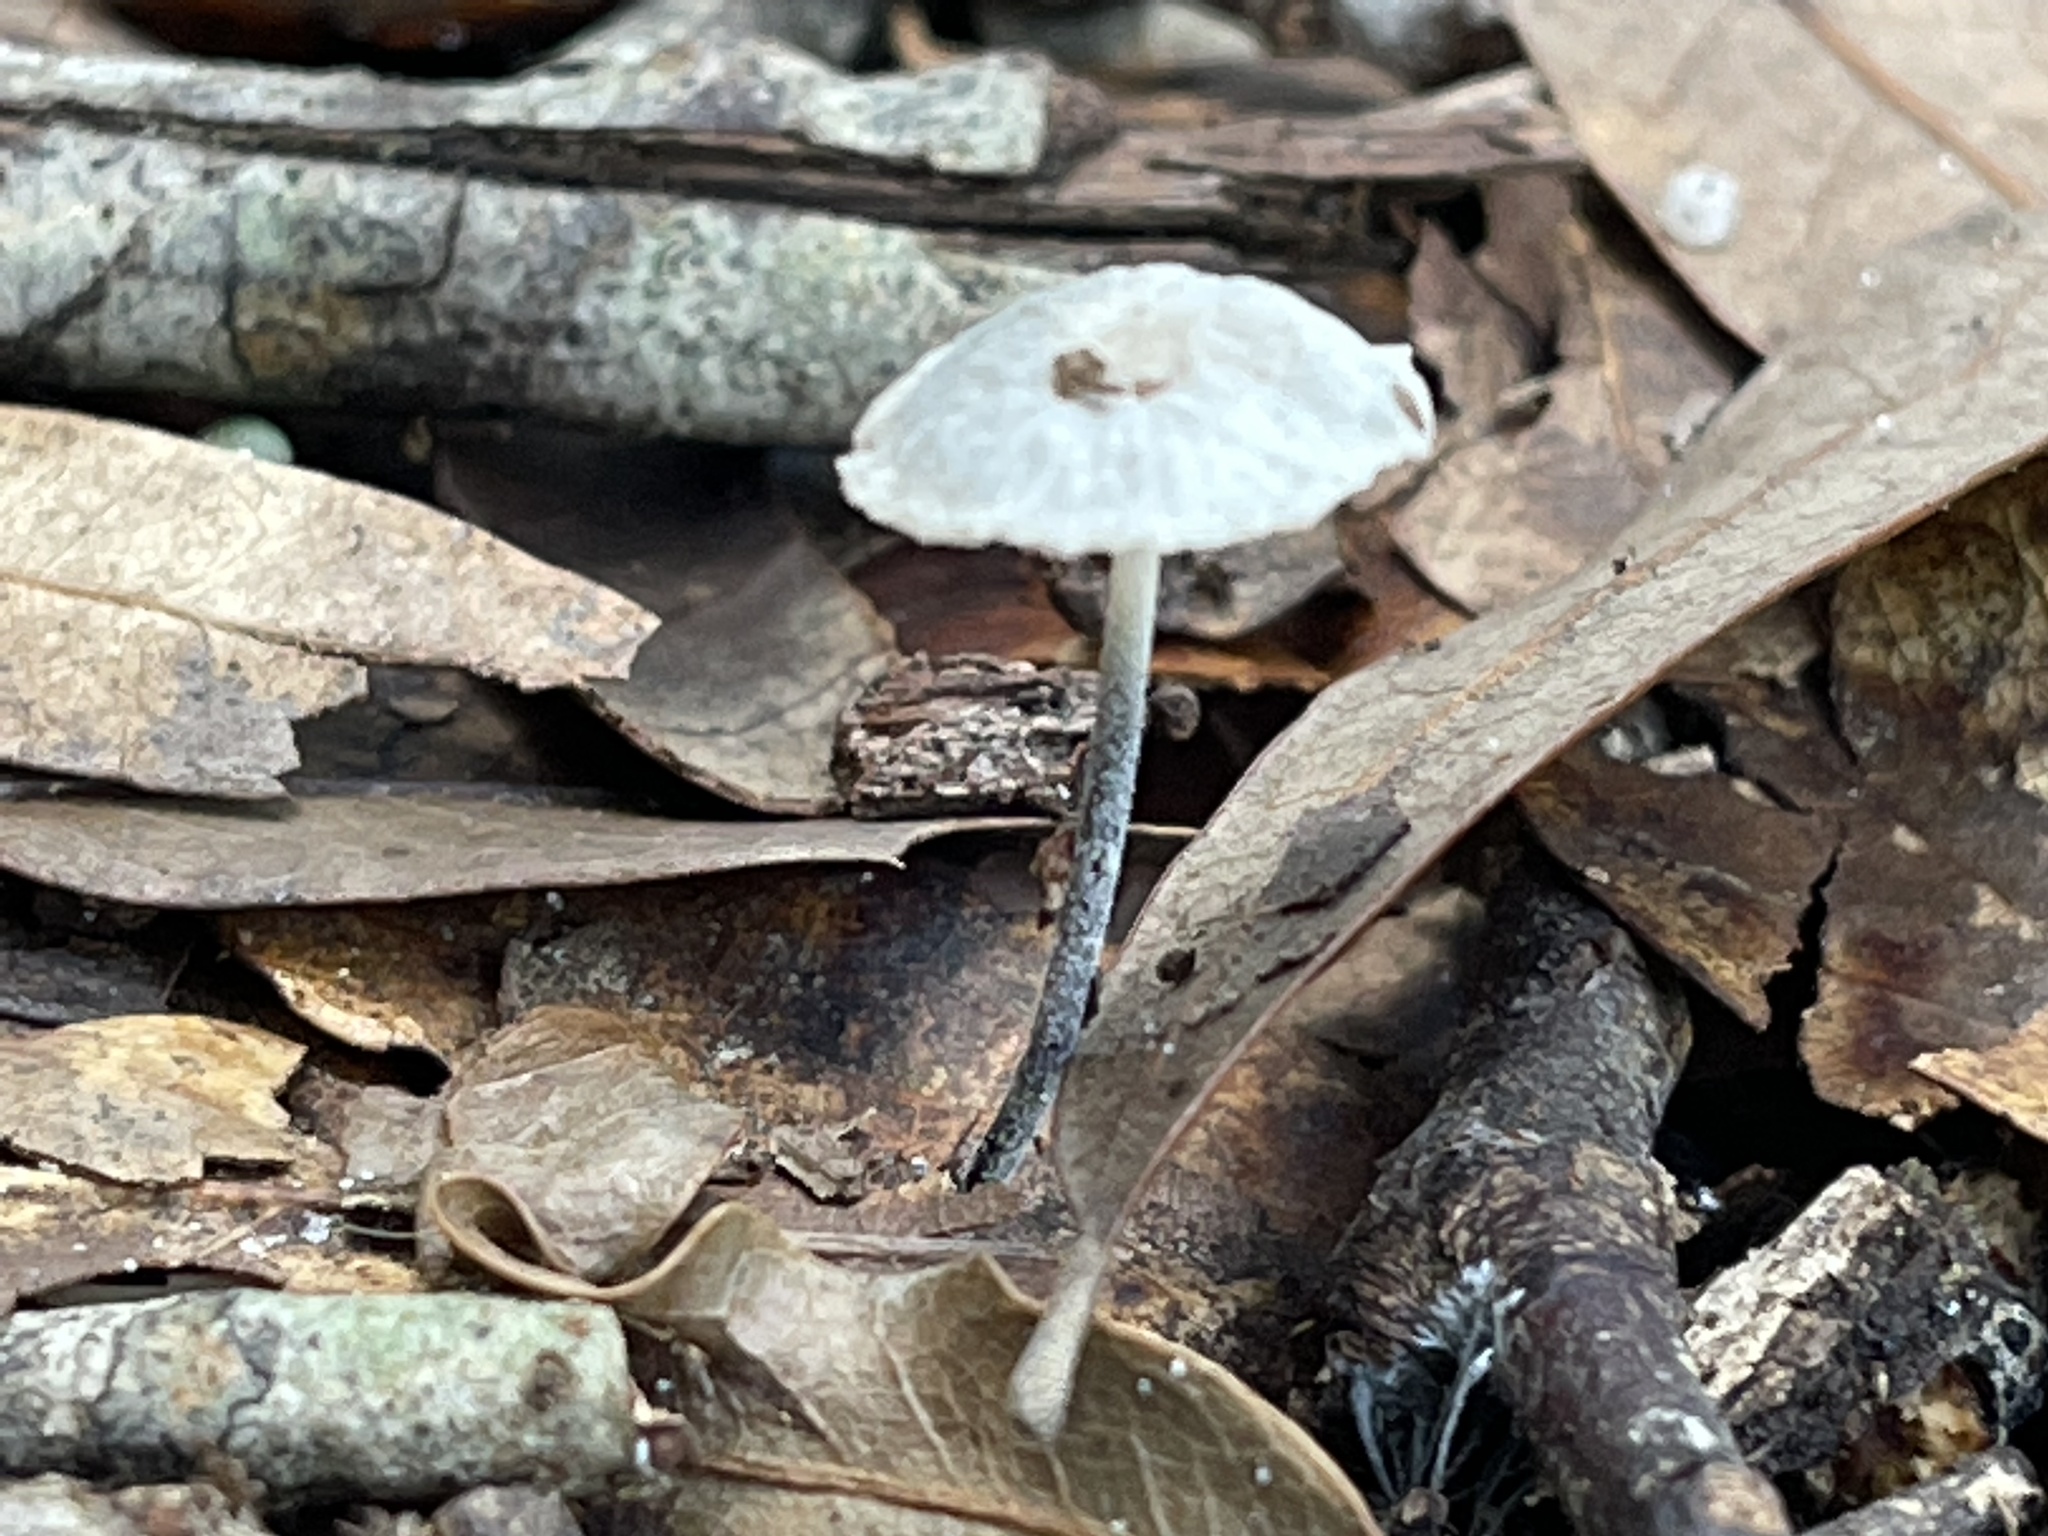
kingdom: Fungi
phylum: Basidiomycota
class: Agaricomycetes
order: Agaricales
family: Marasmiaceae
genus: Tetrapyrgos
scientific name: Tetrapyrgos nigripes
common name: Black-stalked marasmius
